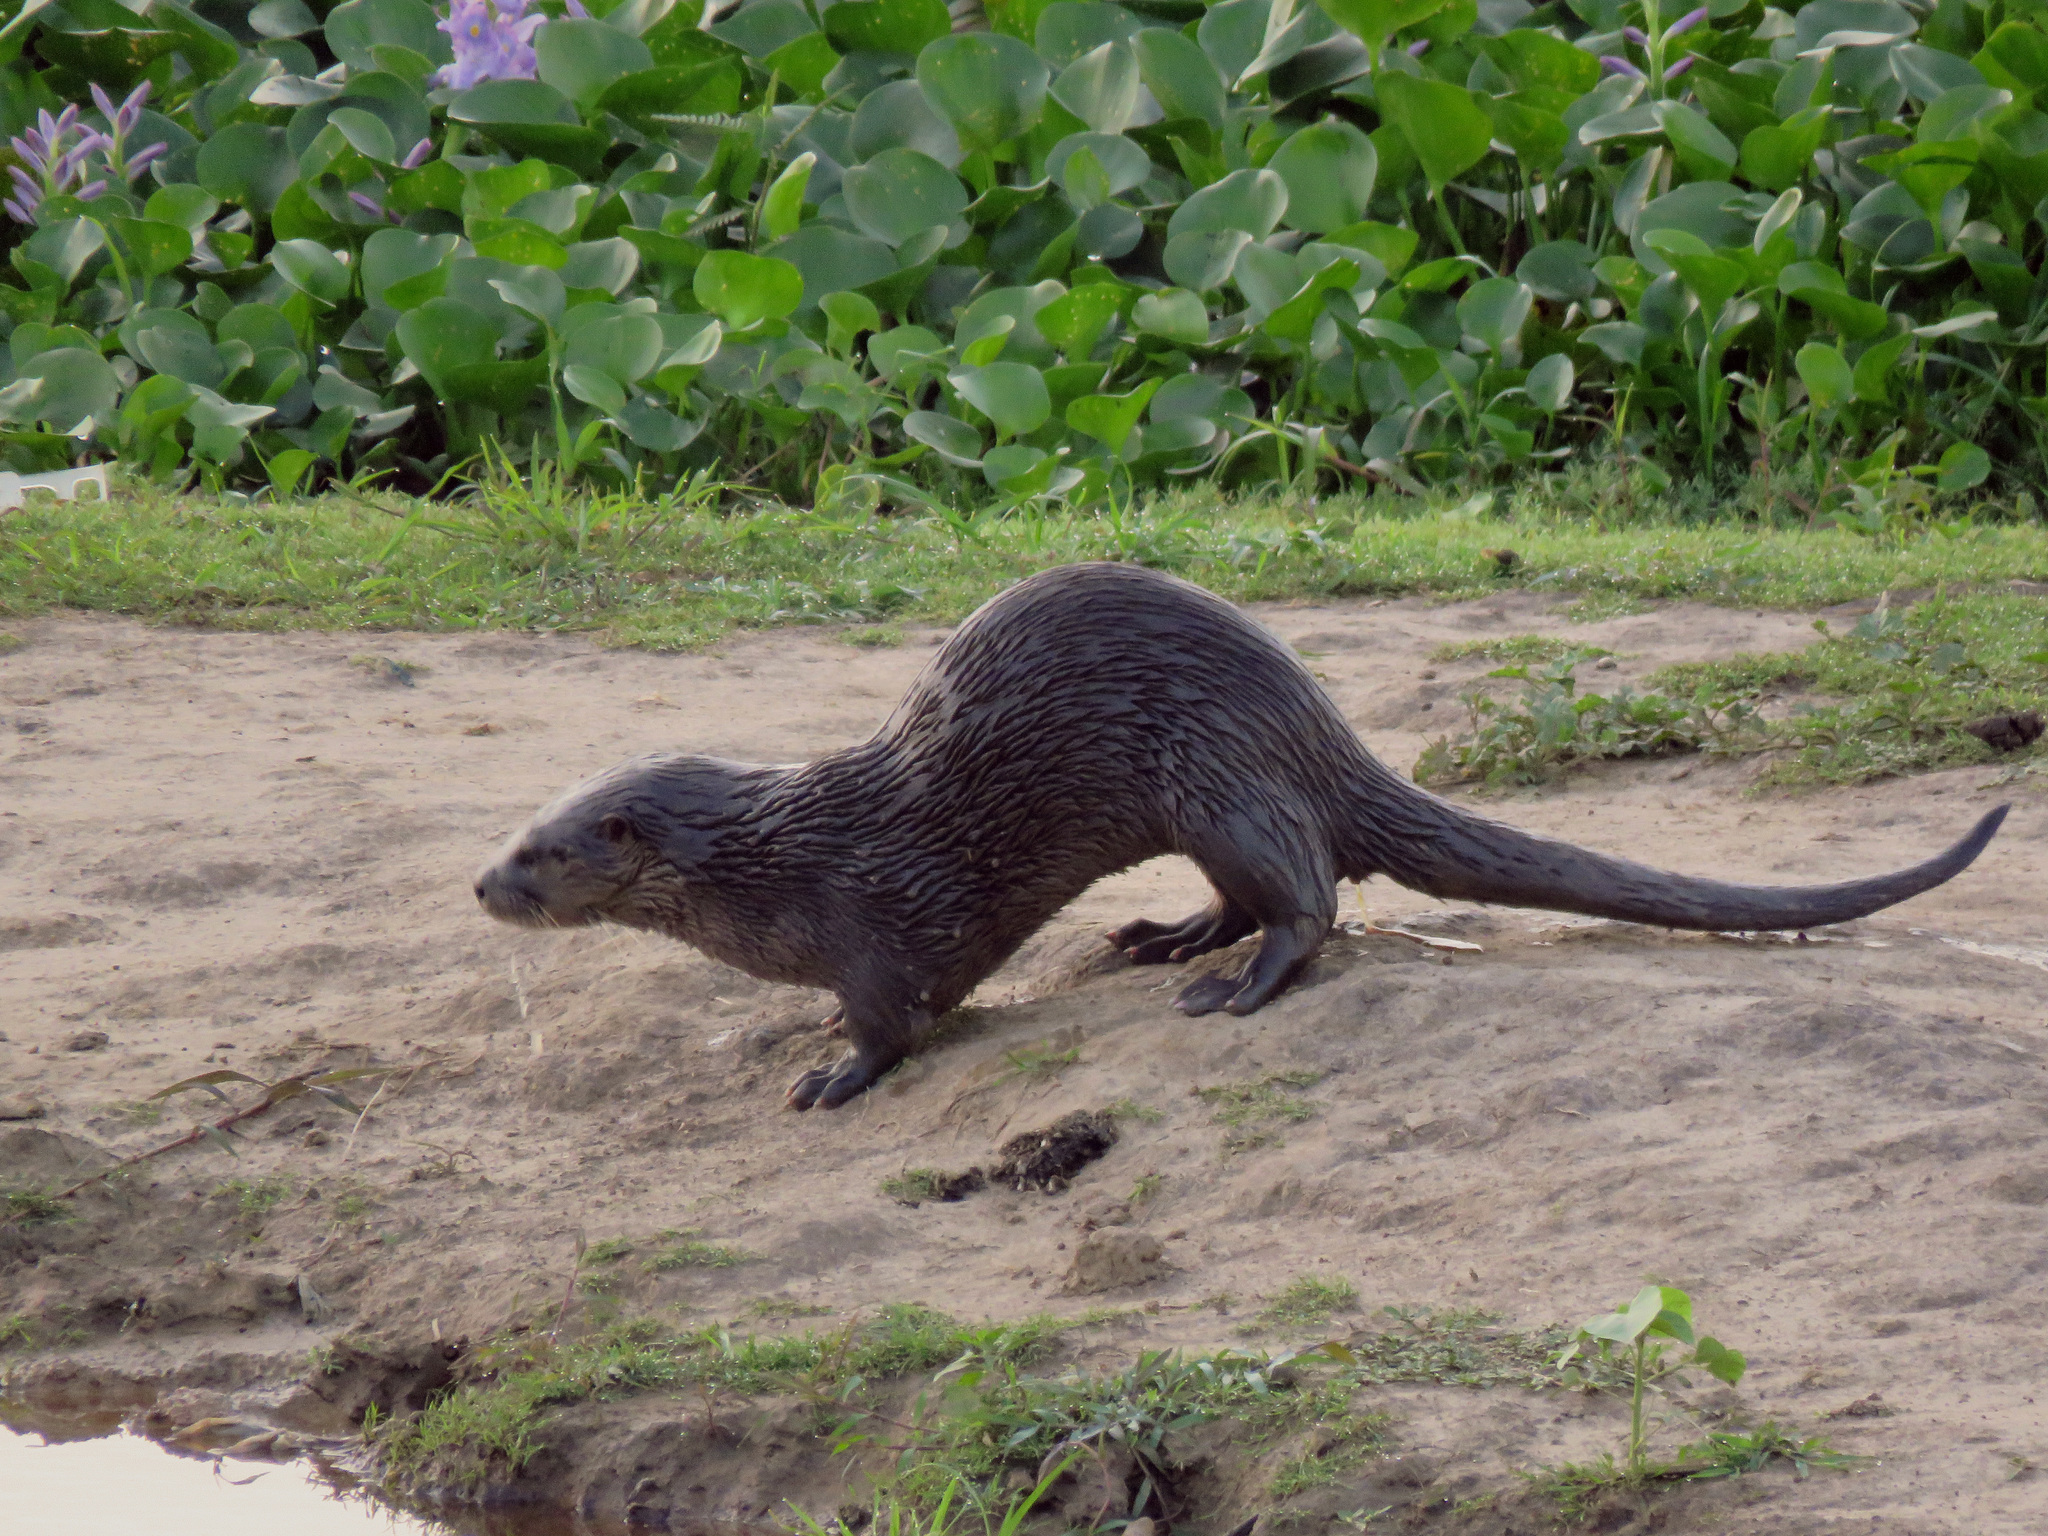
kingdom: Animalia
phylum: Chordata
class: Mammalia
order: Carnivora
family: Mustelidae
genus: Lontra
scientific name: Lontra longicaudis
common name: Neotropical otter
